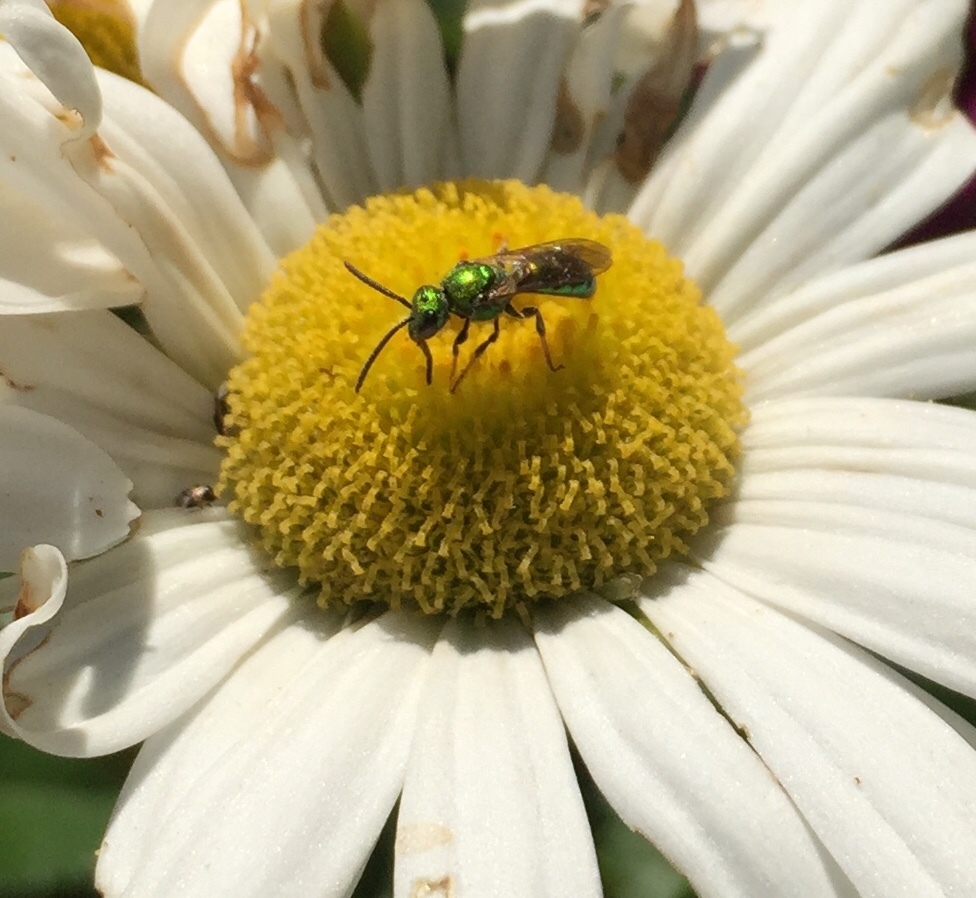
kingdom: Animalia
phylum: Arthropoda
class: Insecta
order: Hymenoptera
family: Halictidae
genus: Augochlora
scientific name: Augochlora pura
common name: Pure green sweat bee
